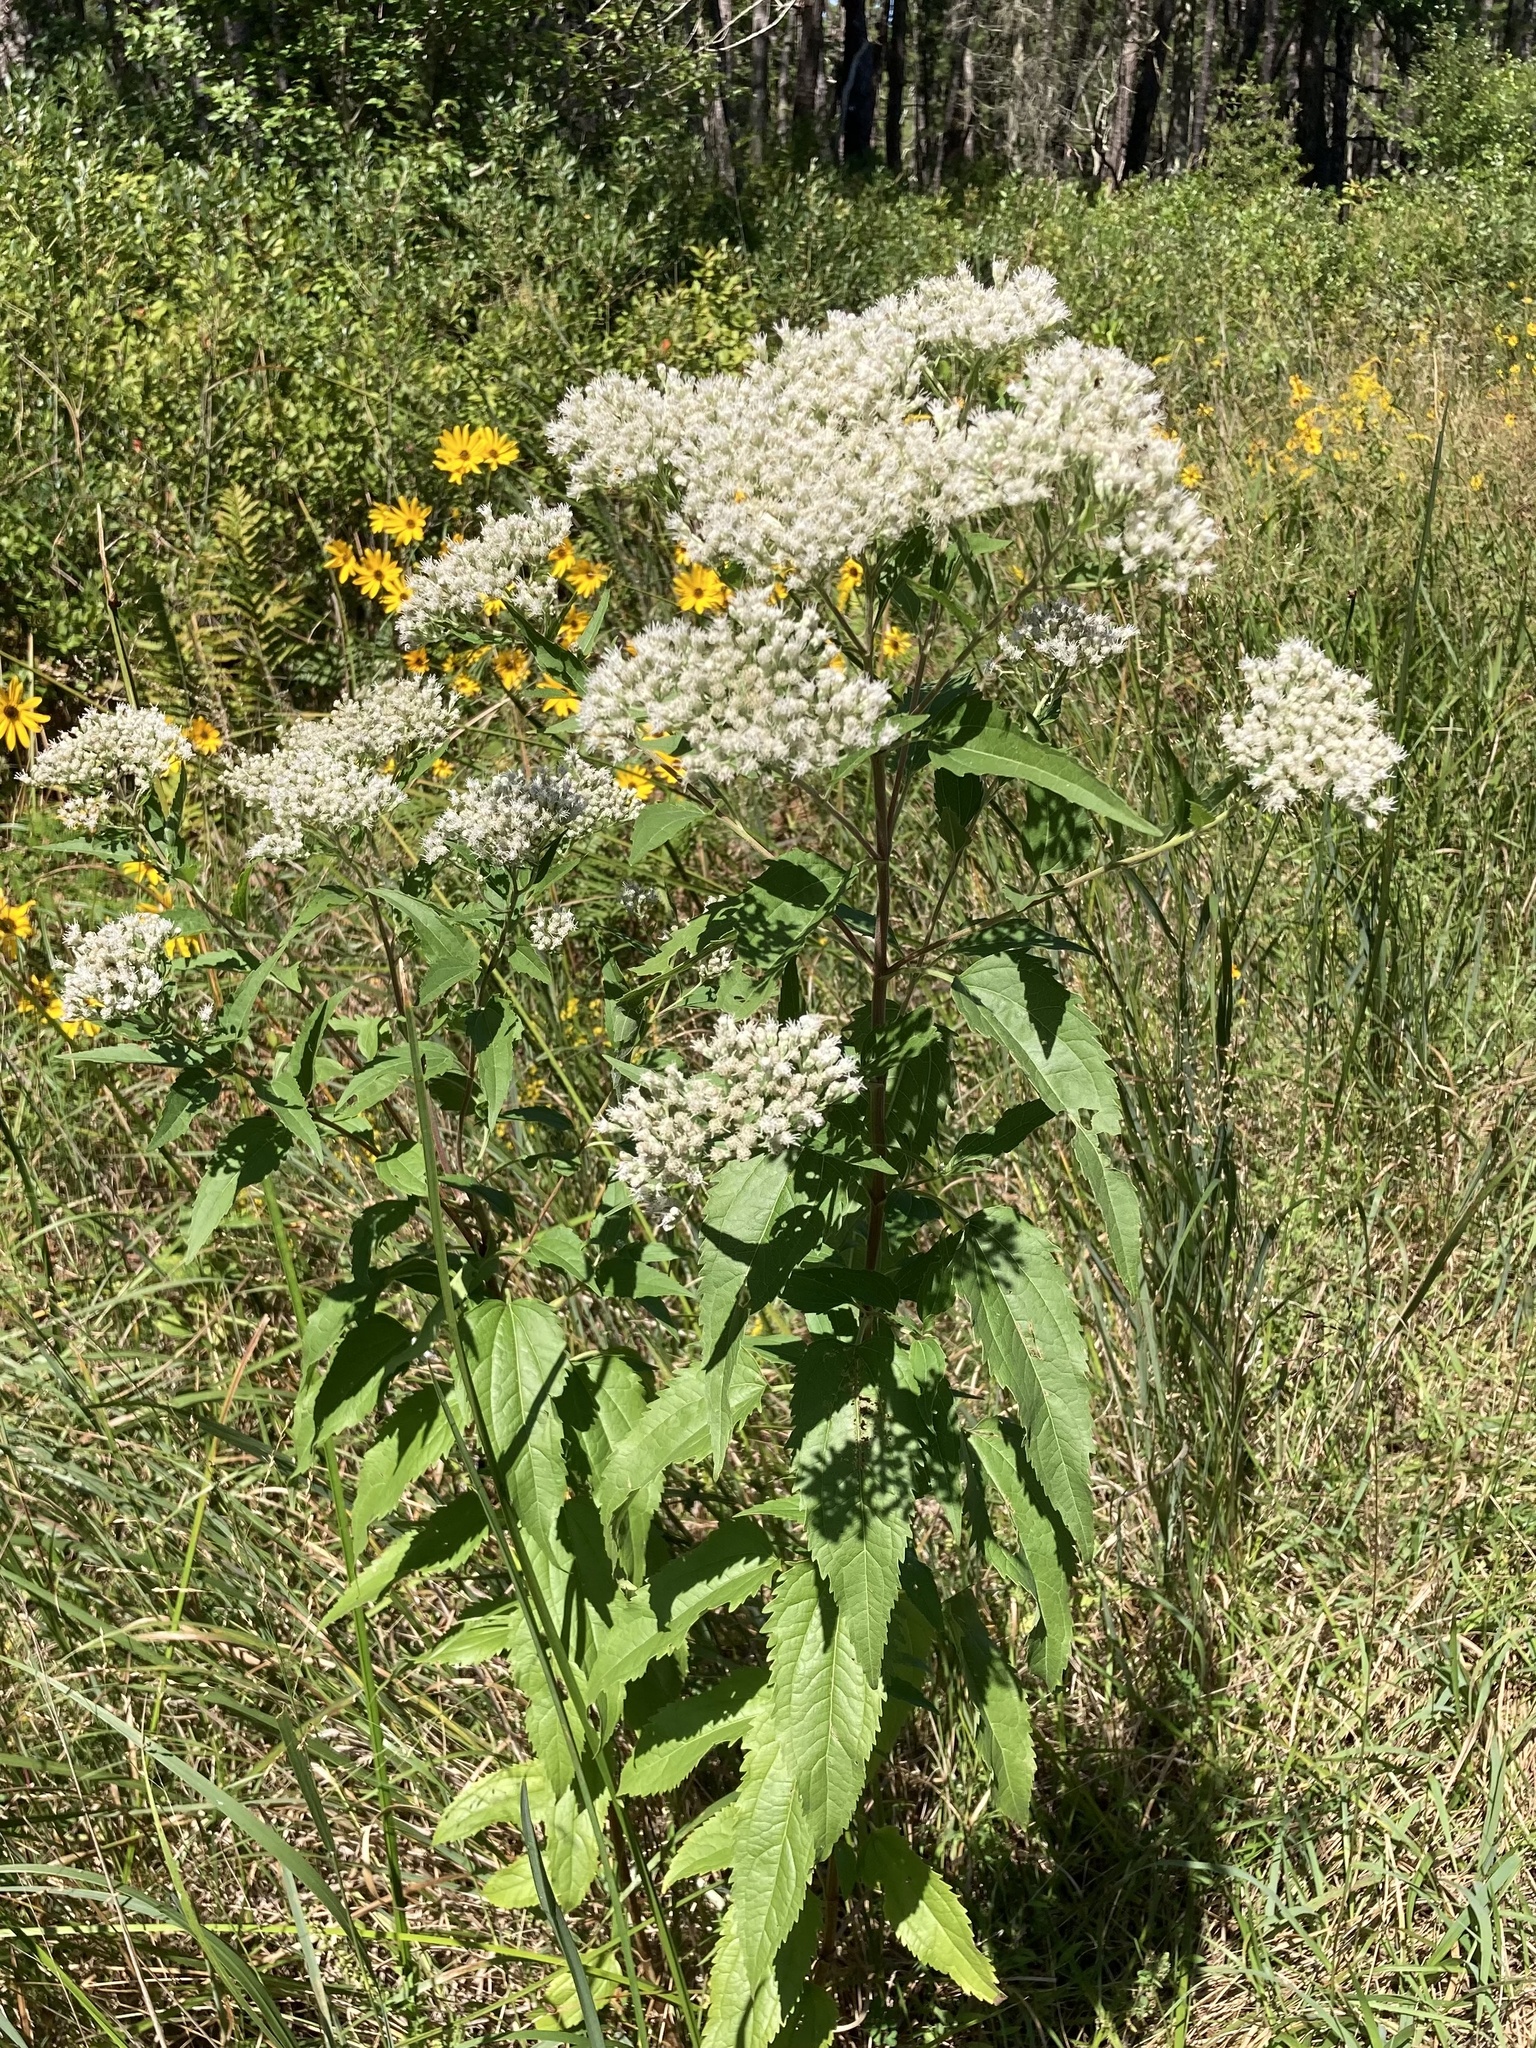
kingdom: Plantae
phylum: Tracheophyta
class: Magnoliopsida
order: Asterales
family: Asteraceae
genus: Eupatorium
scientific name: Eupatorium serotinum
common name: Late boneset
